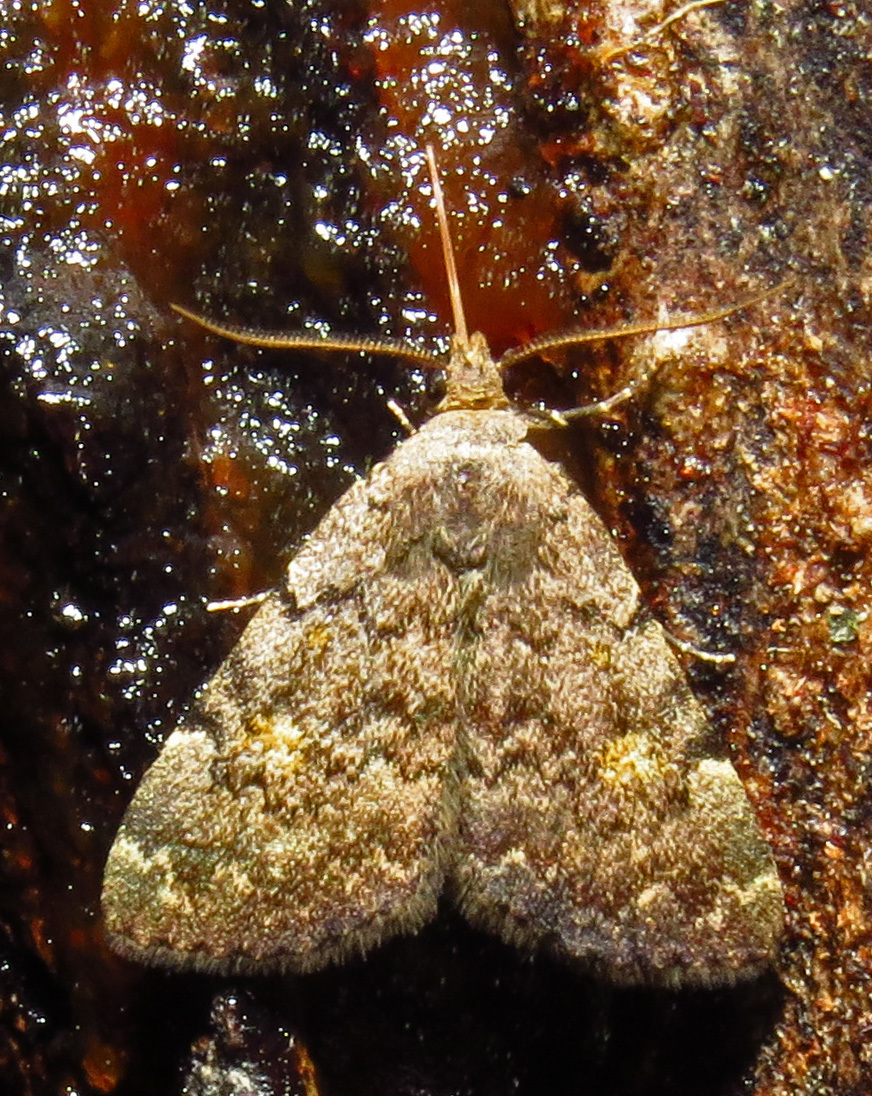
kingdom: Animalia
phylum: Arthropoda
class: Insecta
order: Lepidoptera
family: Erebidae
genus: Idia
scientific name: Idia aemula
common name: Common idia moth
